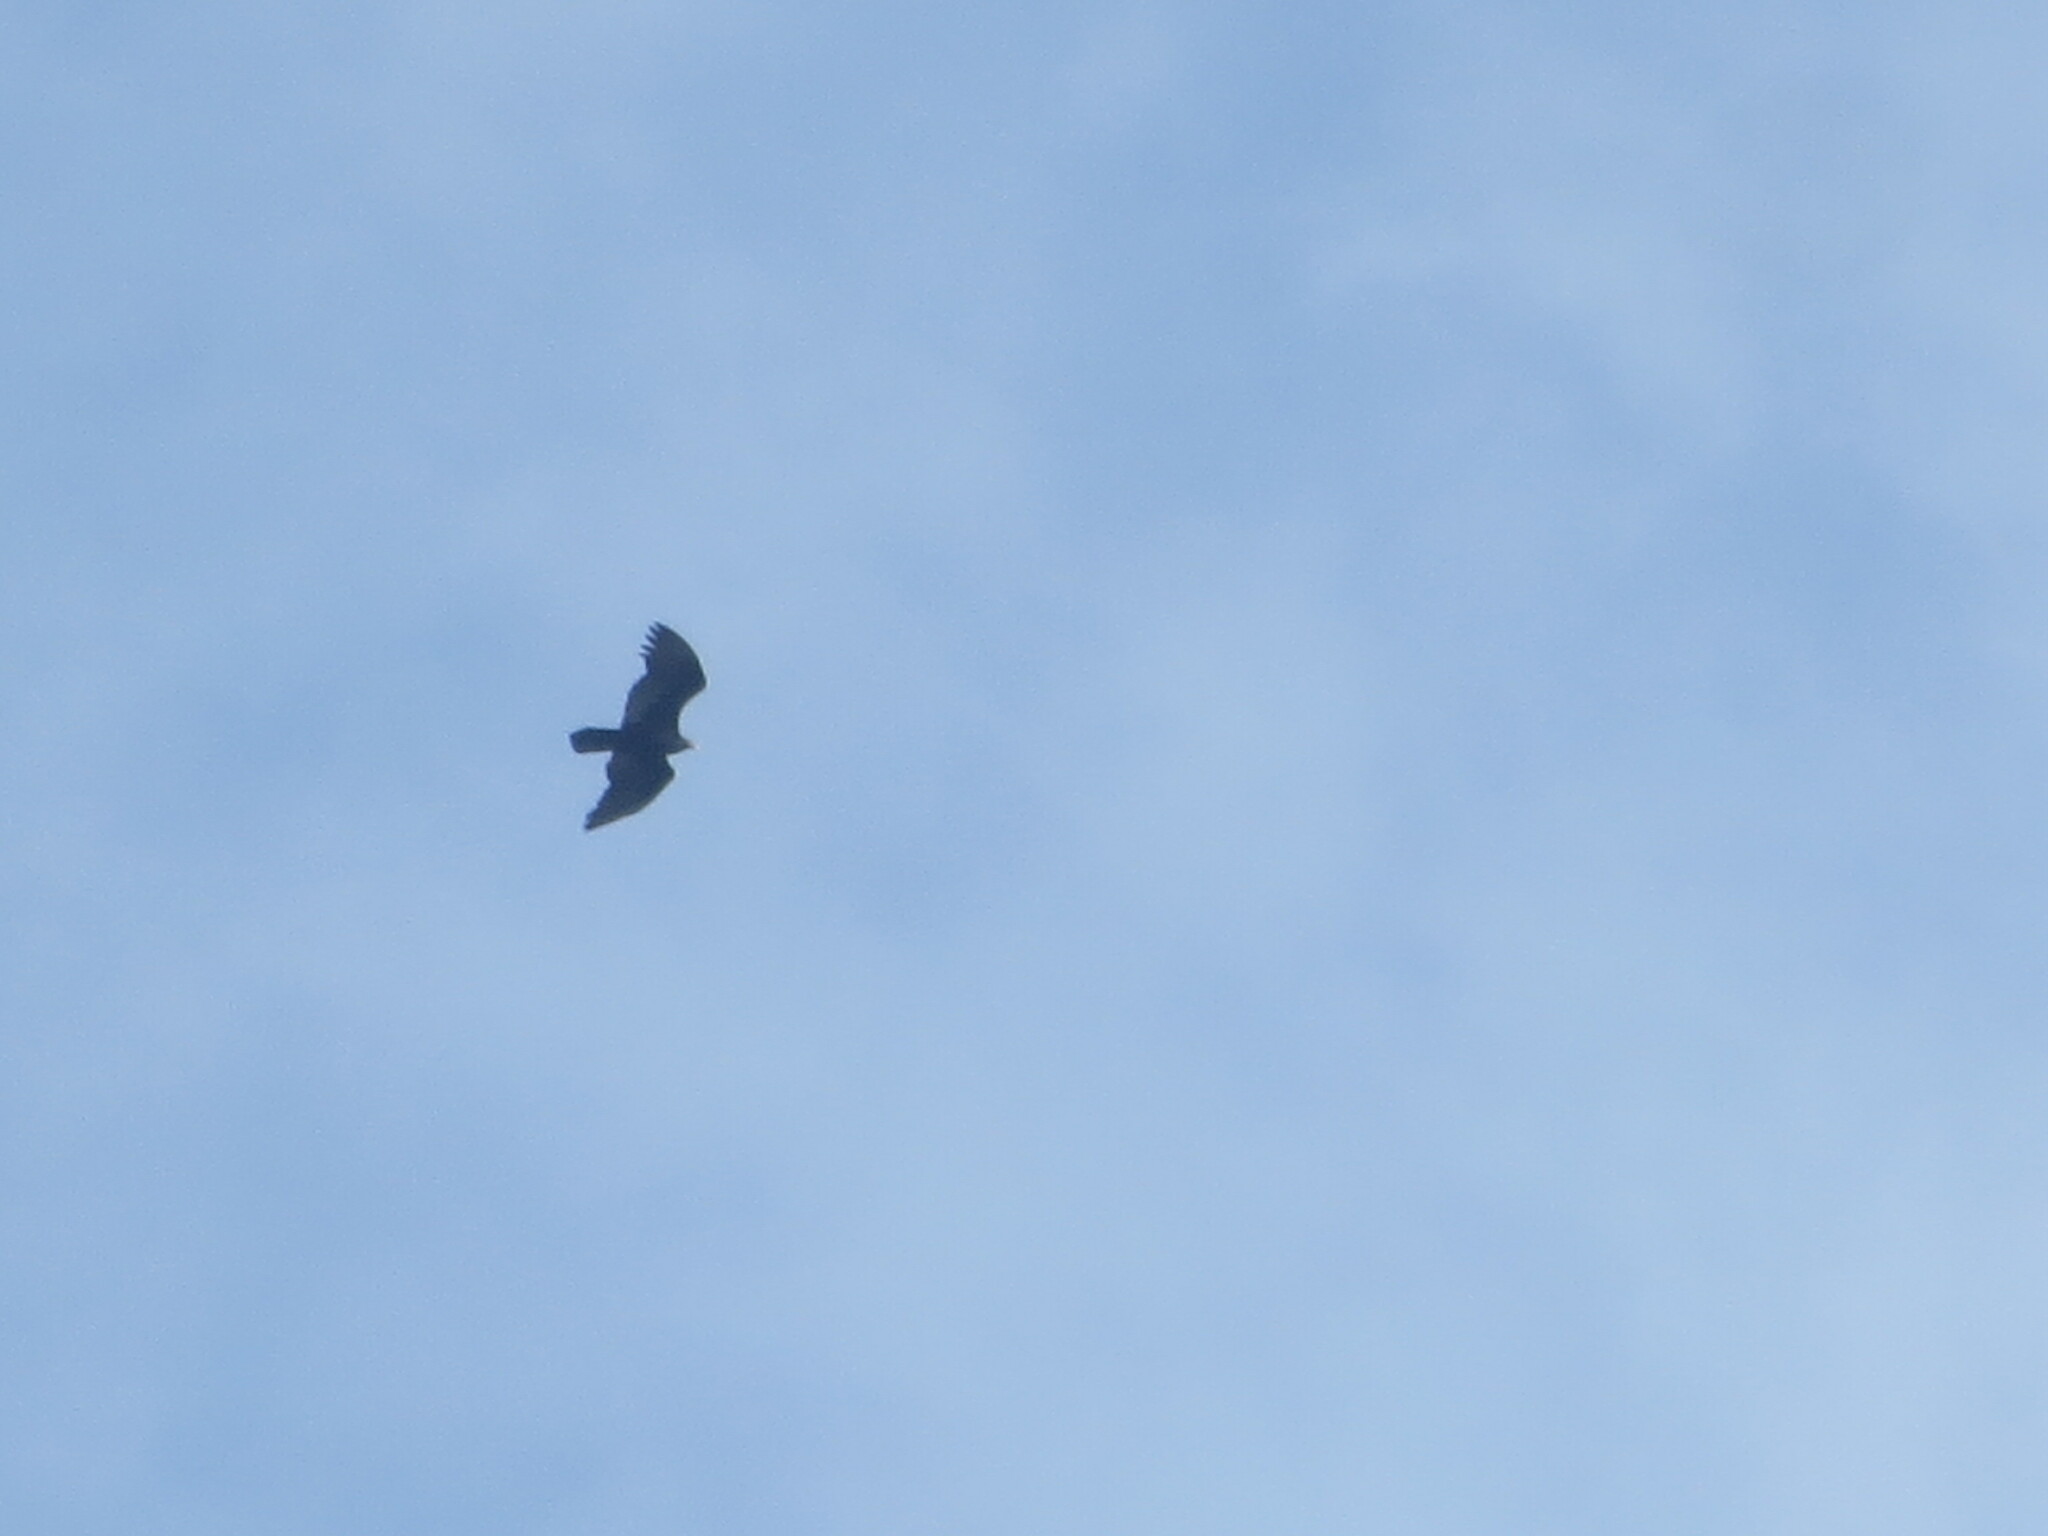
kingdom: Animalia
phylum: Chordata
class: Aves
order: Accipitriformes
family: Cathartidae
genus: Cathartes
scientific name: Cathartes aura
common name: Turkey vulture
